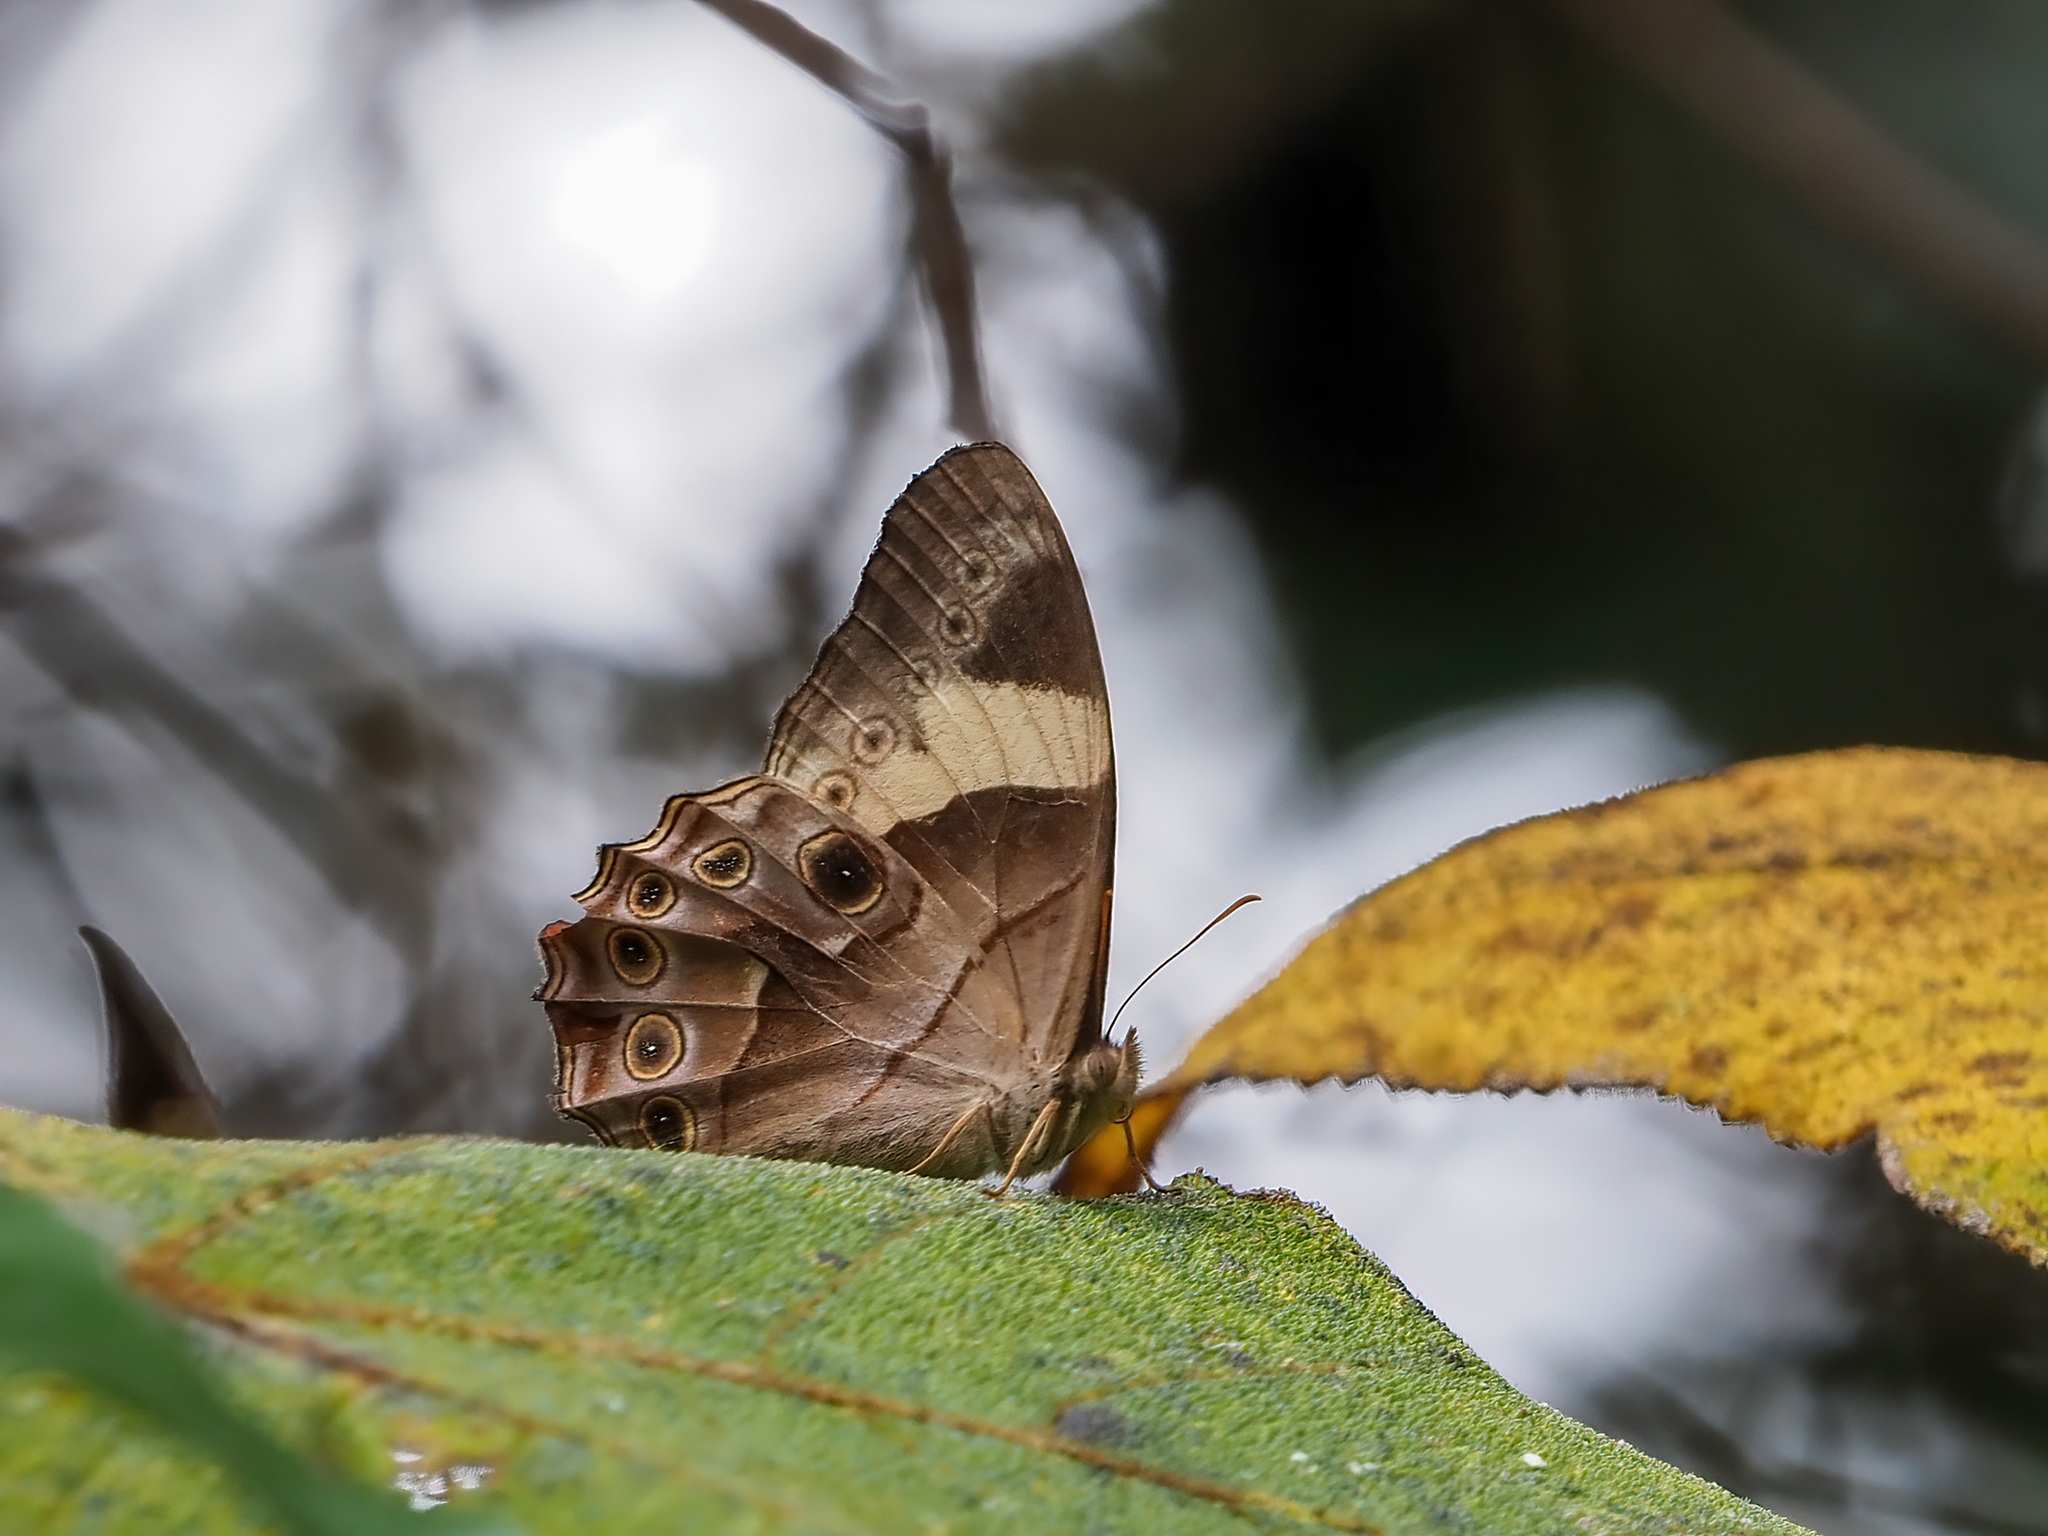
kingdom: Animalia
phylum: Arthropoda
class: Insecta
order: Lepidoptera
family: Nymphalidae
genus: Lethe
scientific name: Lethe chandica
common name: Angled red forester
